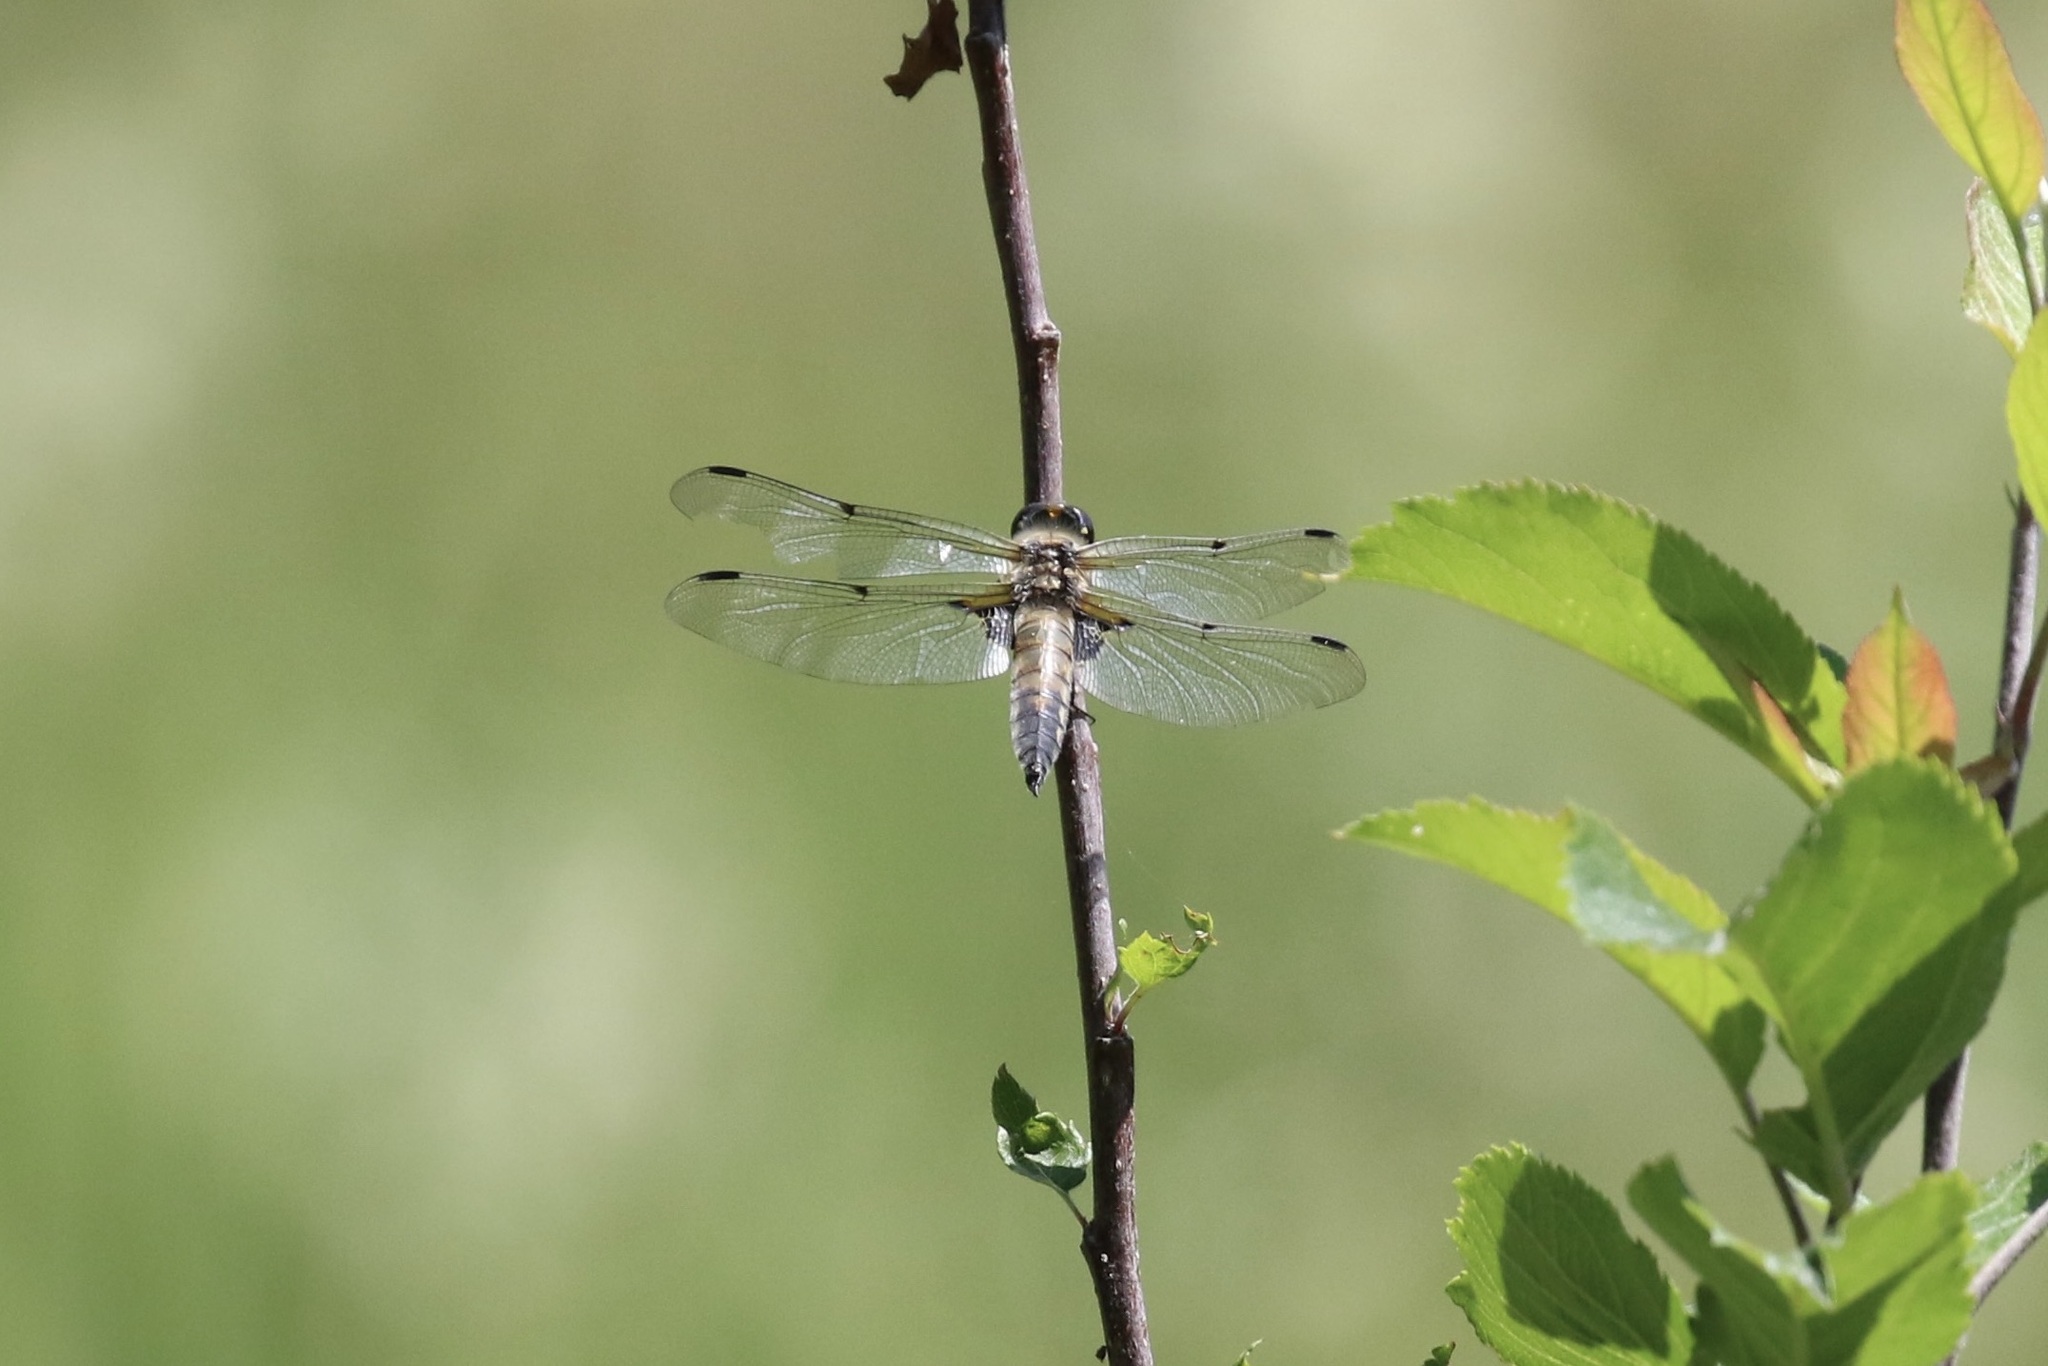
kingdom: Animalia
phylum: Arthropoda
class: Insecta
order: Odonata
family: Libellulidae
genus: Libellula
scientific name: Libellula quadrimaculata
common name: Four-spotted chaser
